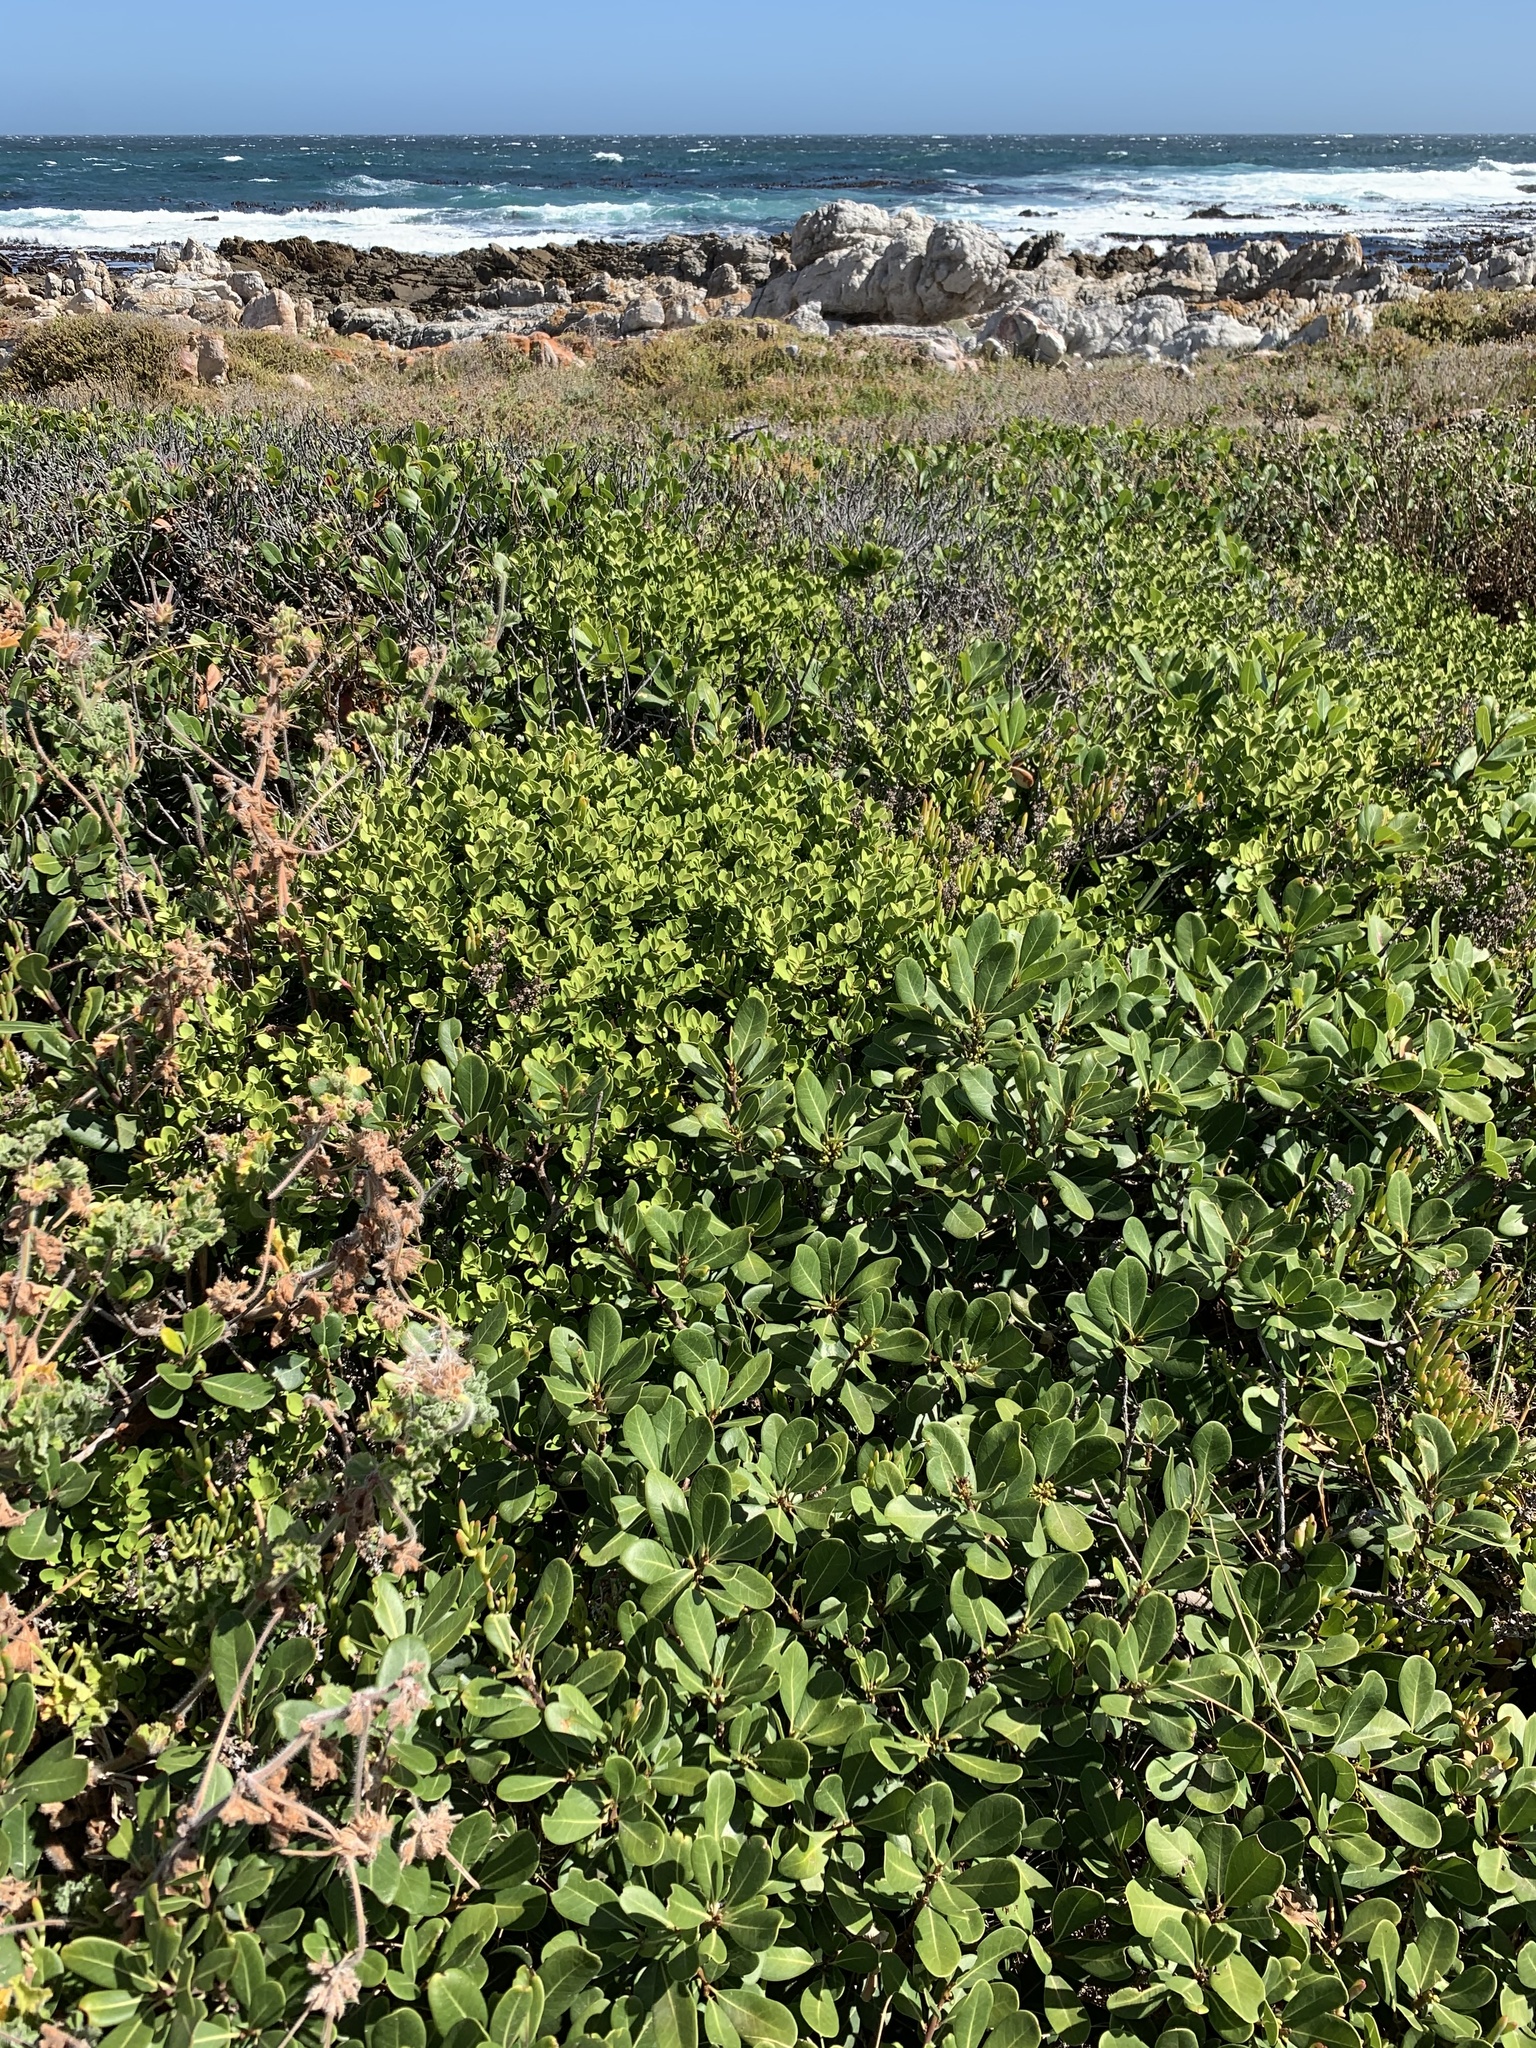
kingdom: Plantae
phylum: Tracheophyta
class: Magnoliopsida
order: Ericales
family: Sapotaceae
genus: Sideroxylon
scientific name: Sideroxylon inerme
